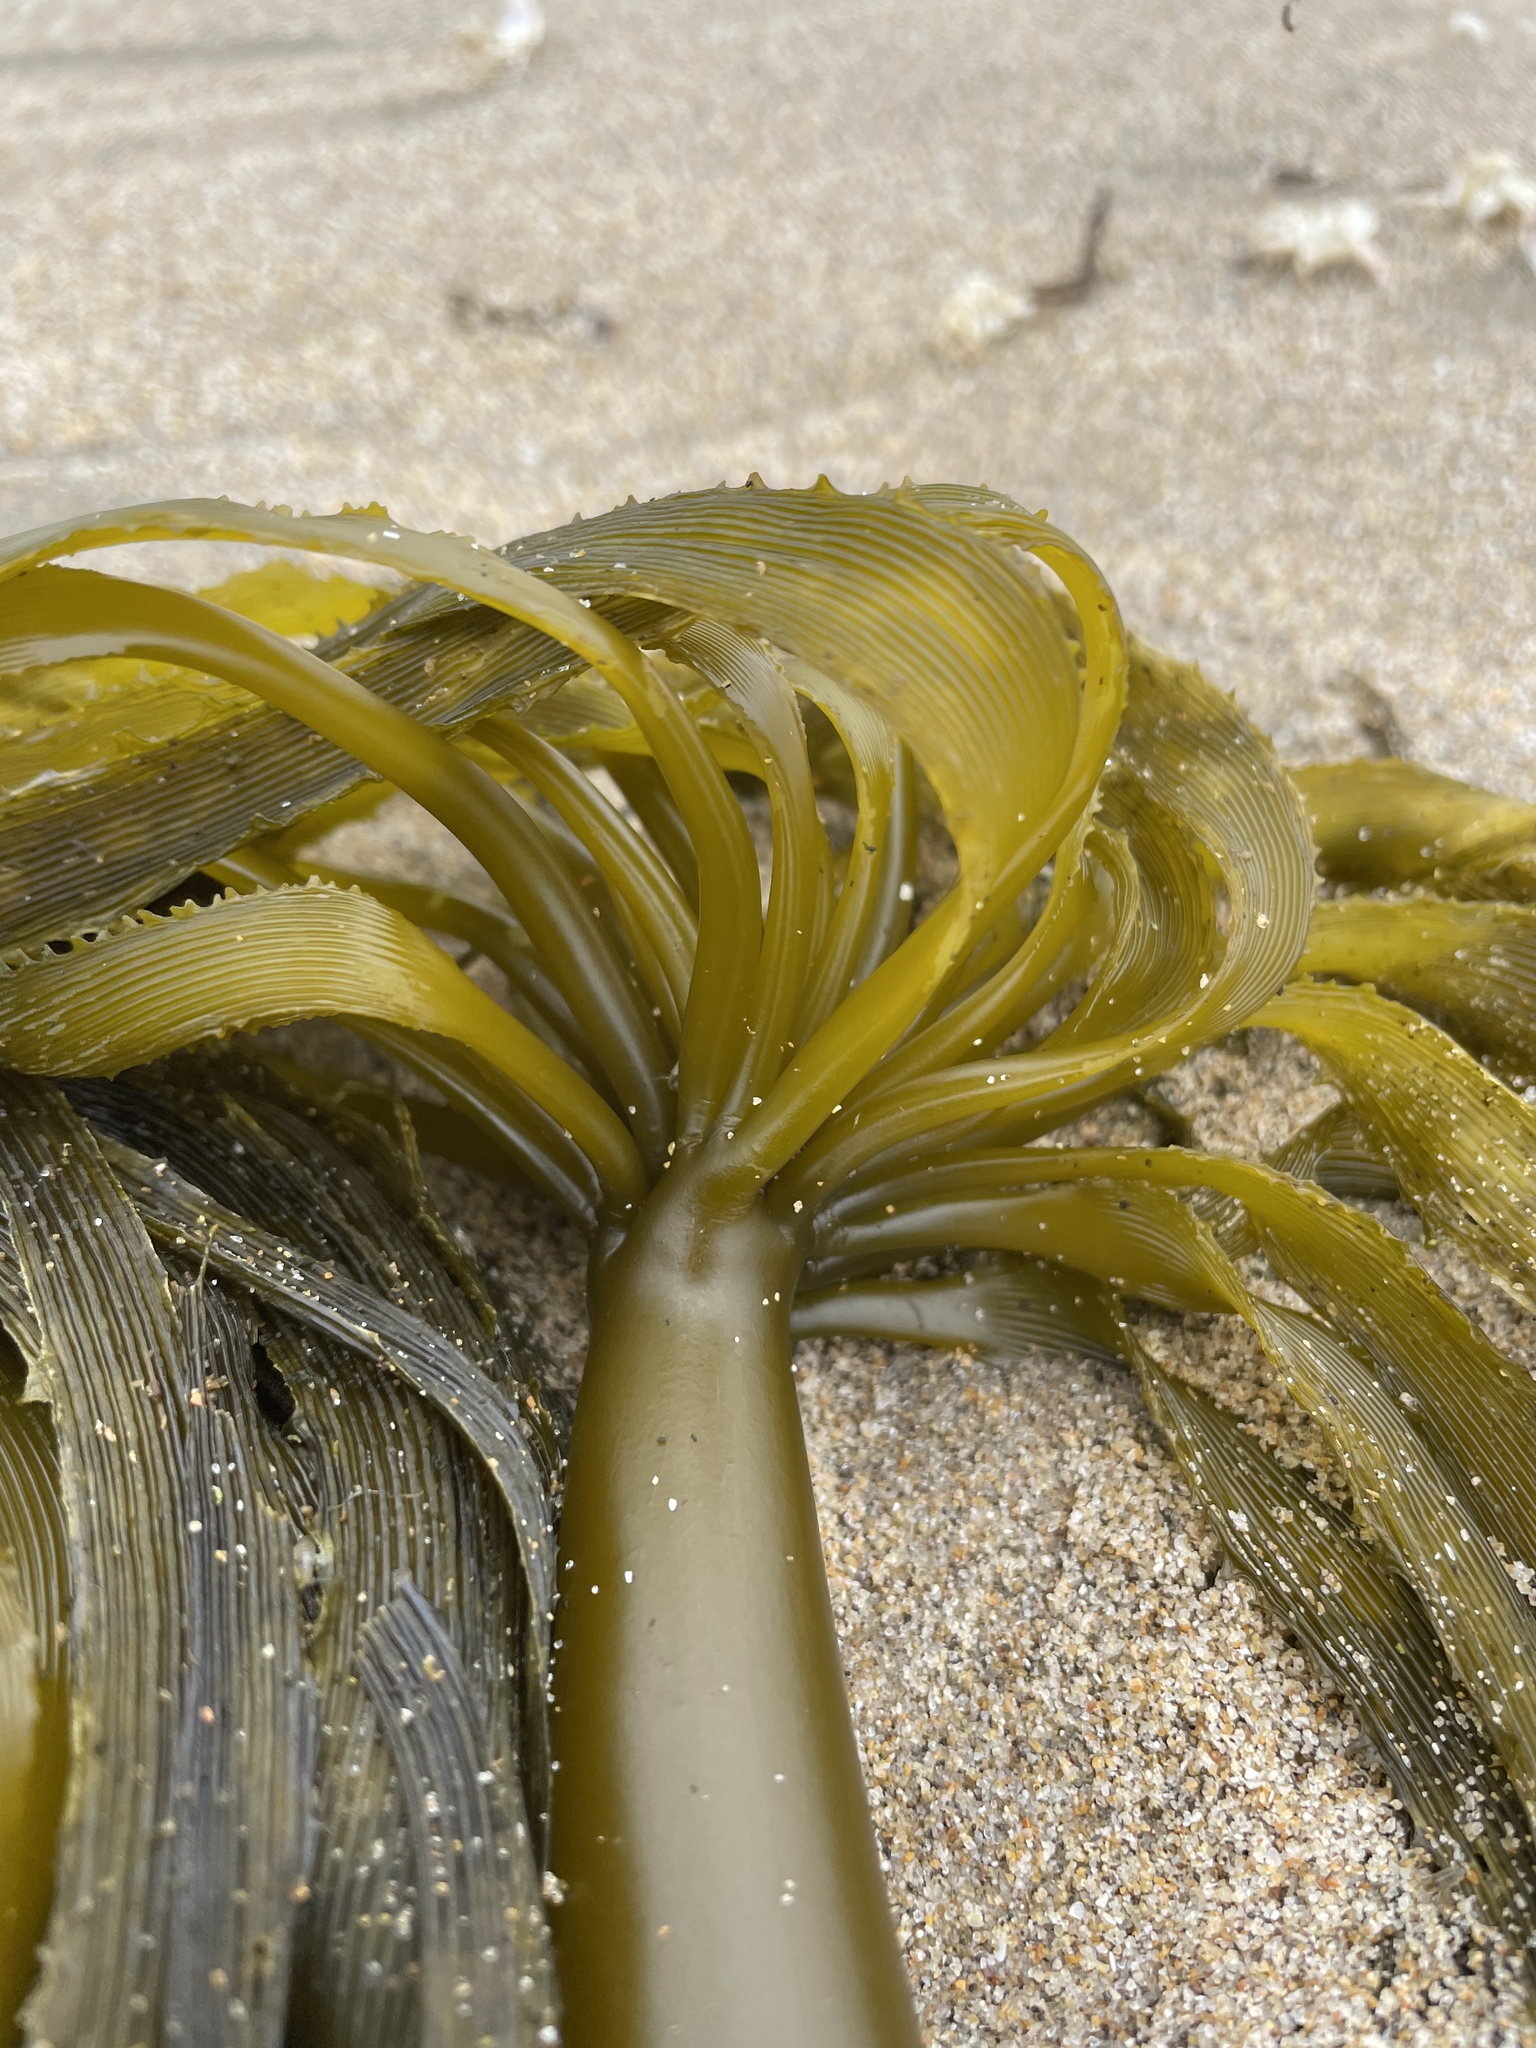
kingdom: Chromista
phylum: Ochrophyta
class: Phaeophyceae
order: Laminariales
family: Laminariaceae
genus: Postelsia
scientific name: Postelsia palmiformis
